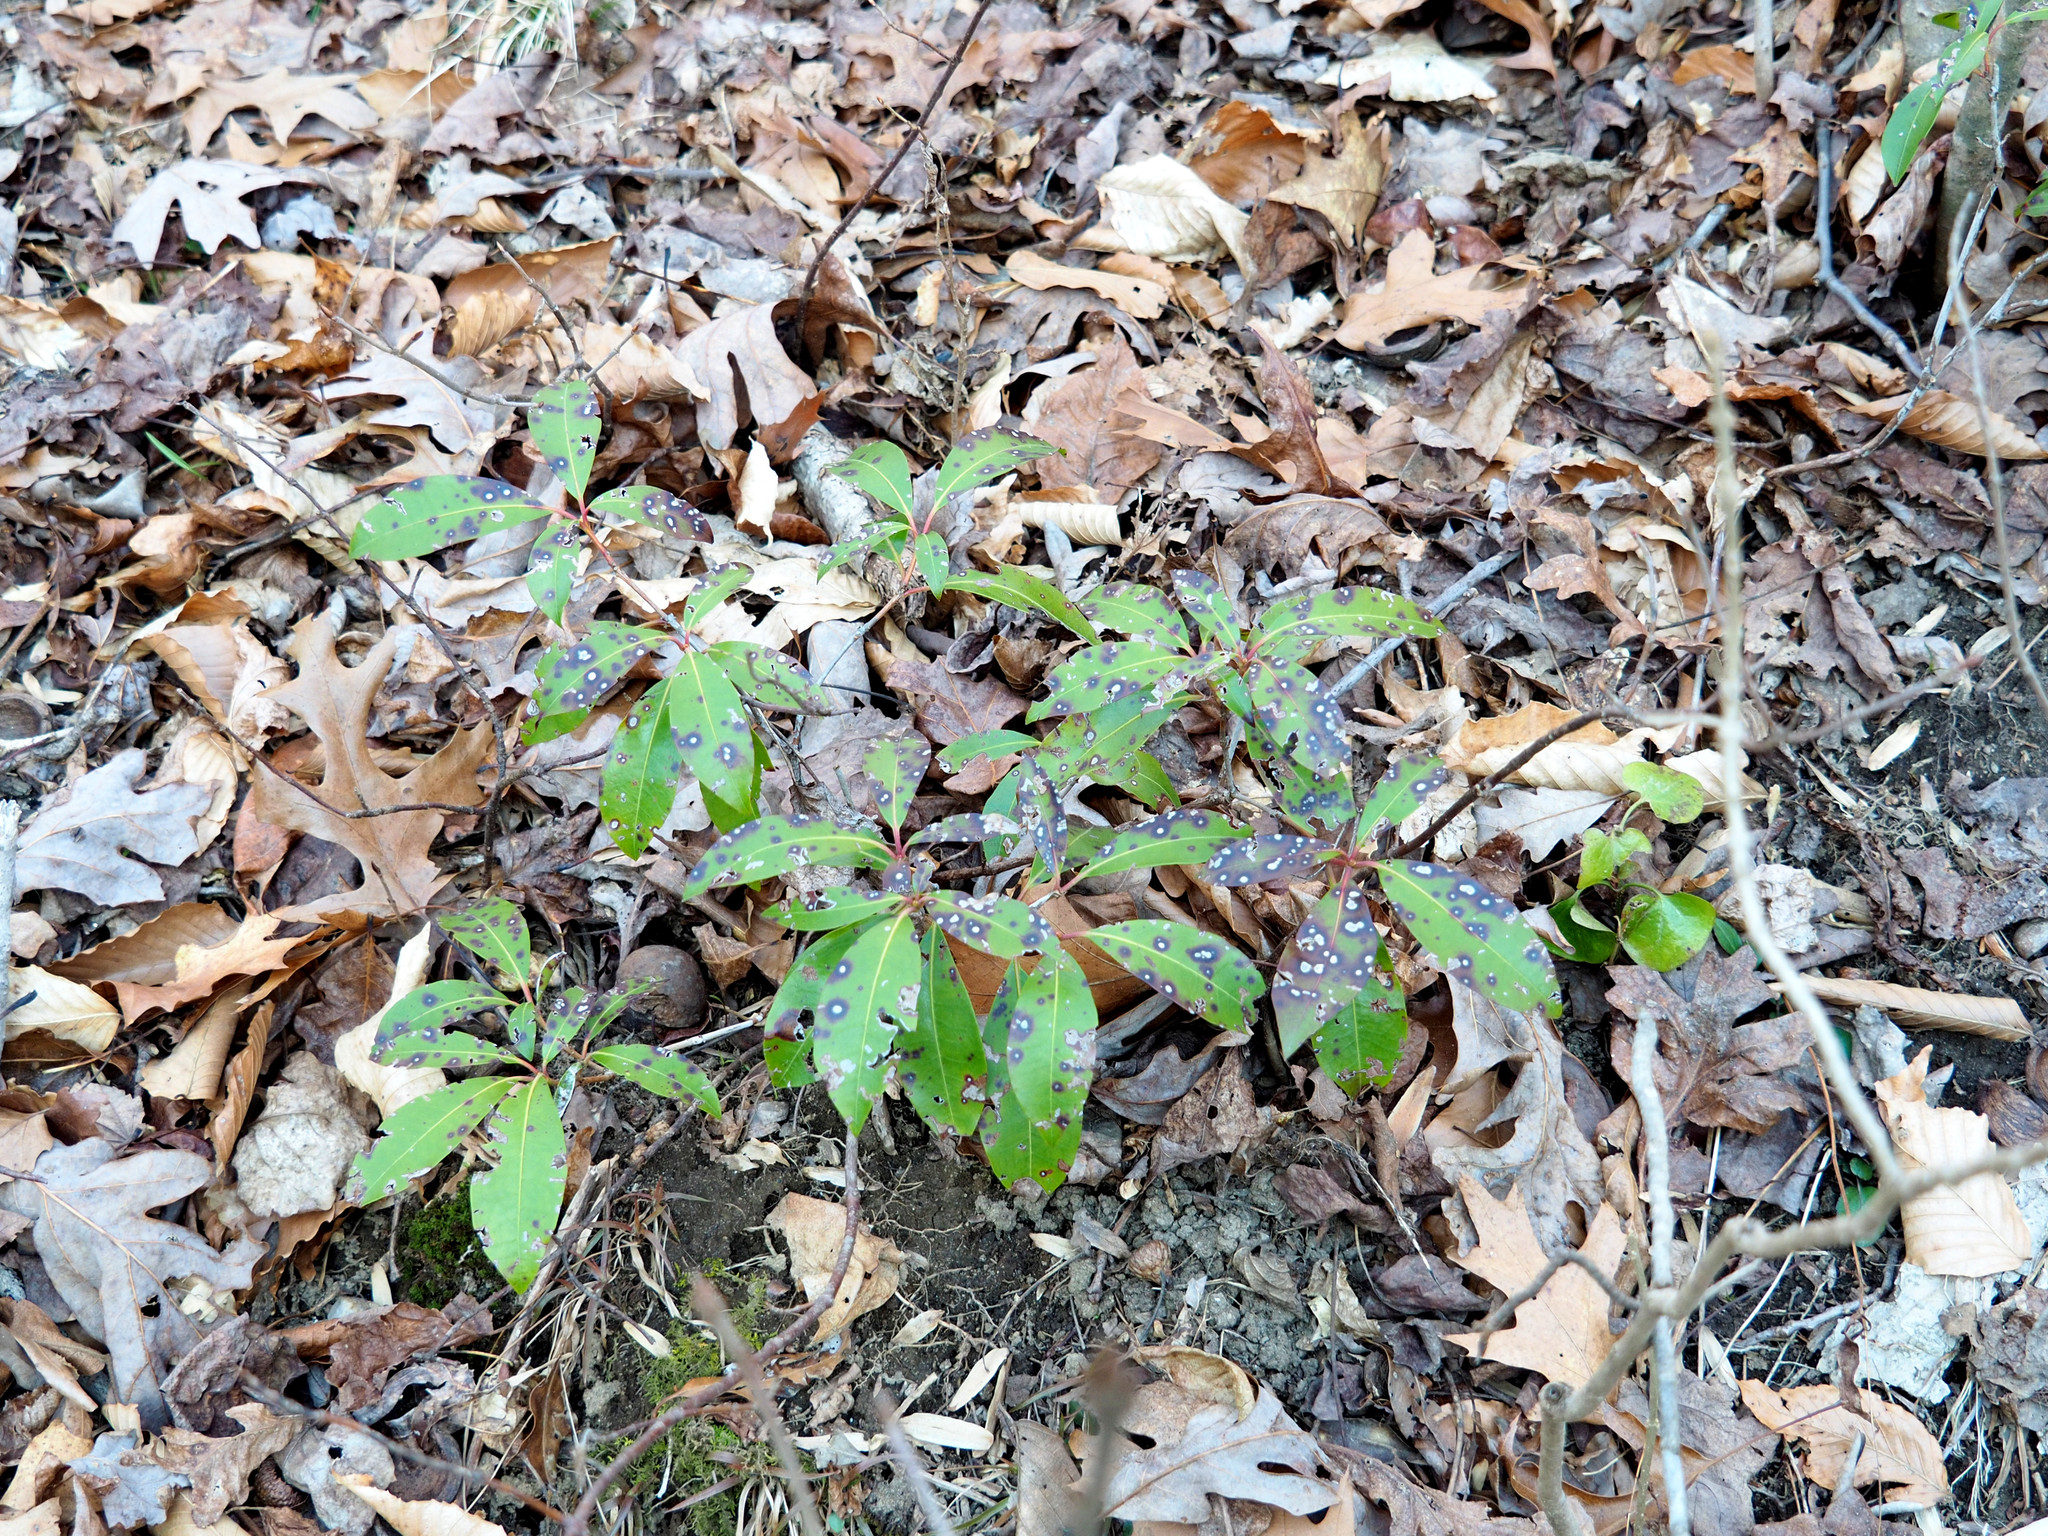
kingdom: Plantae
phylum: Tracheophyta
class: Magnoliopsida
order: Ericales
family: Ericaceae
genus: Kalmia
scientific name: Kalmia latifolia
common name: Mountain-laurel
